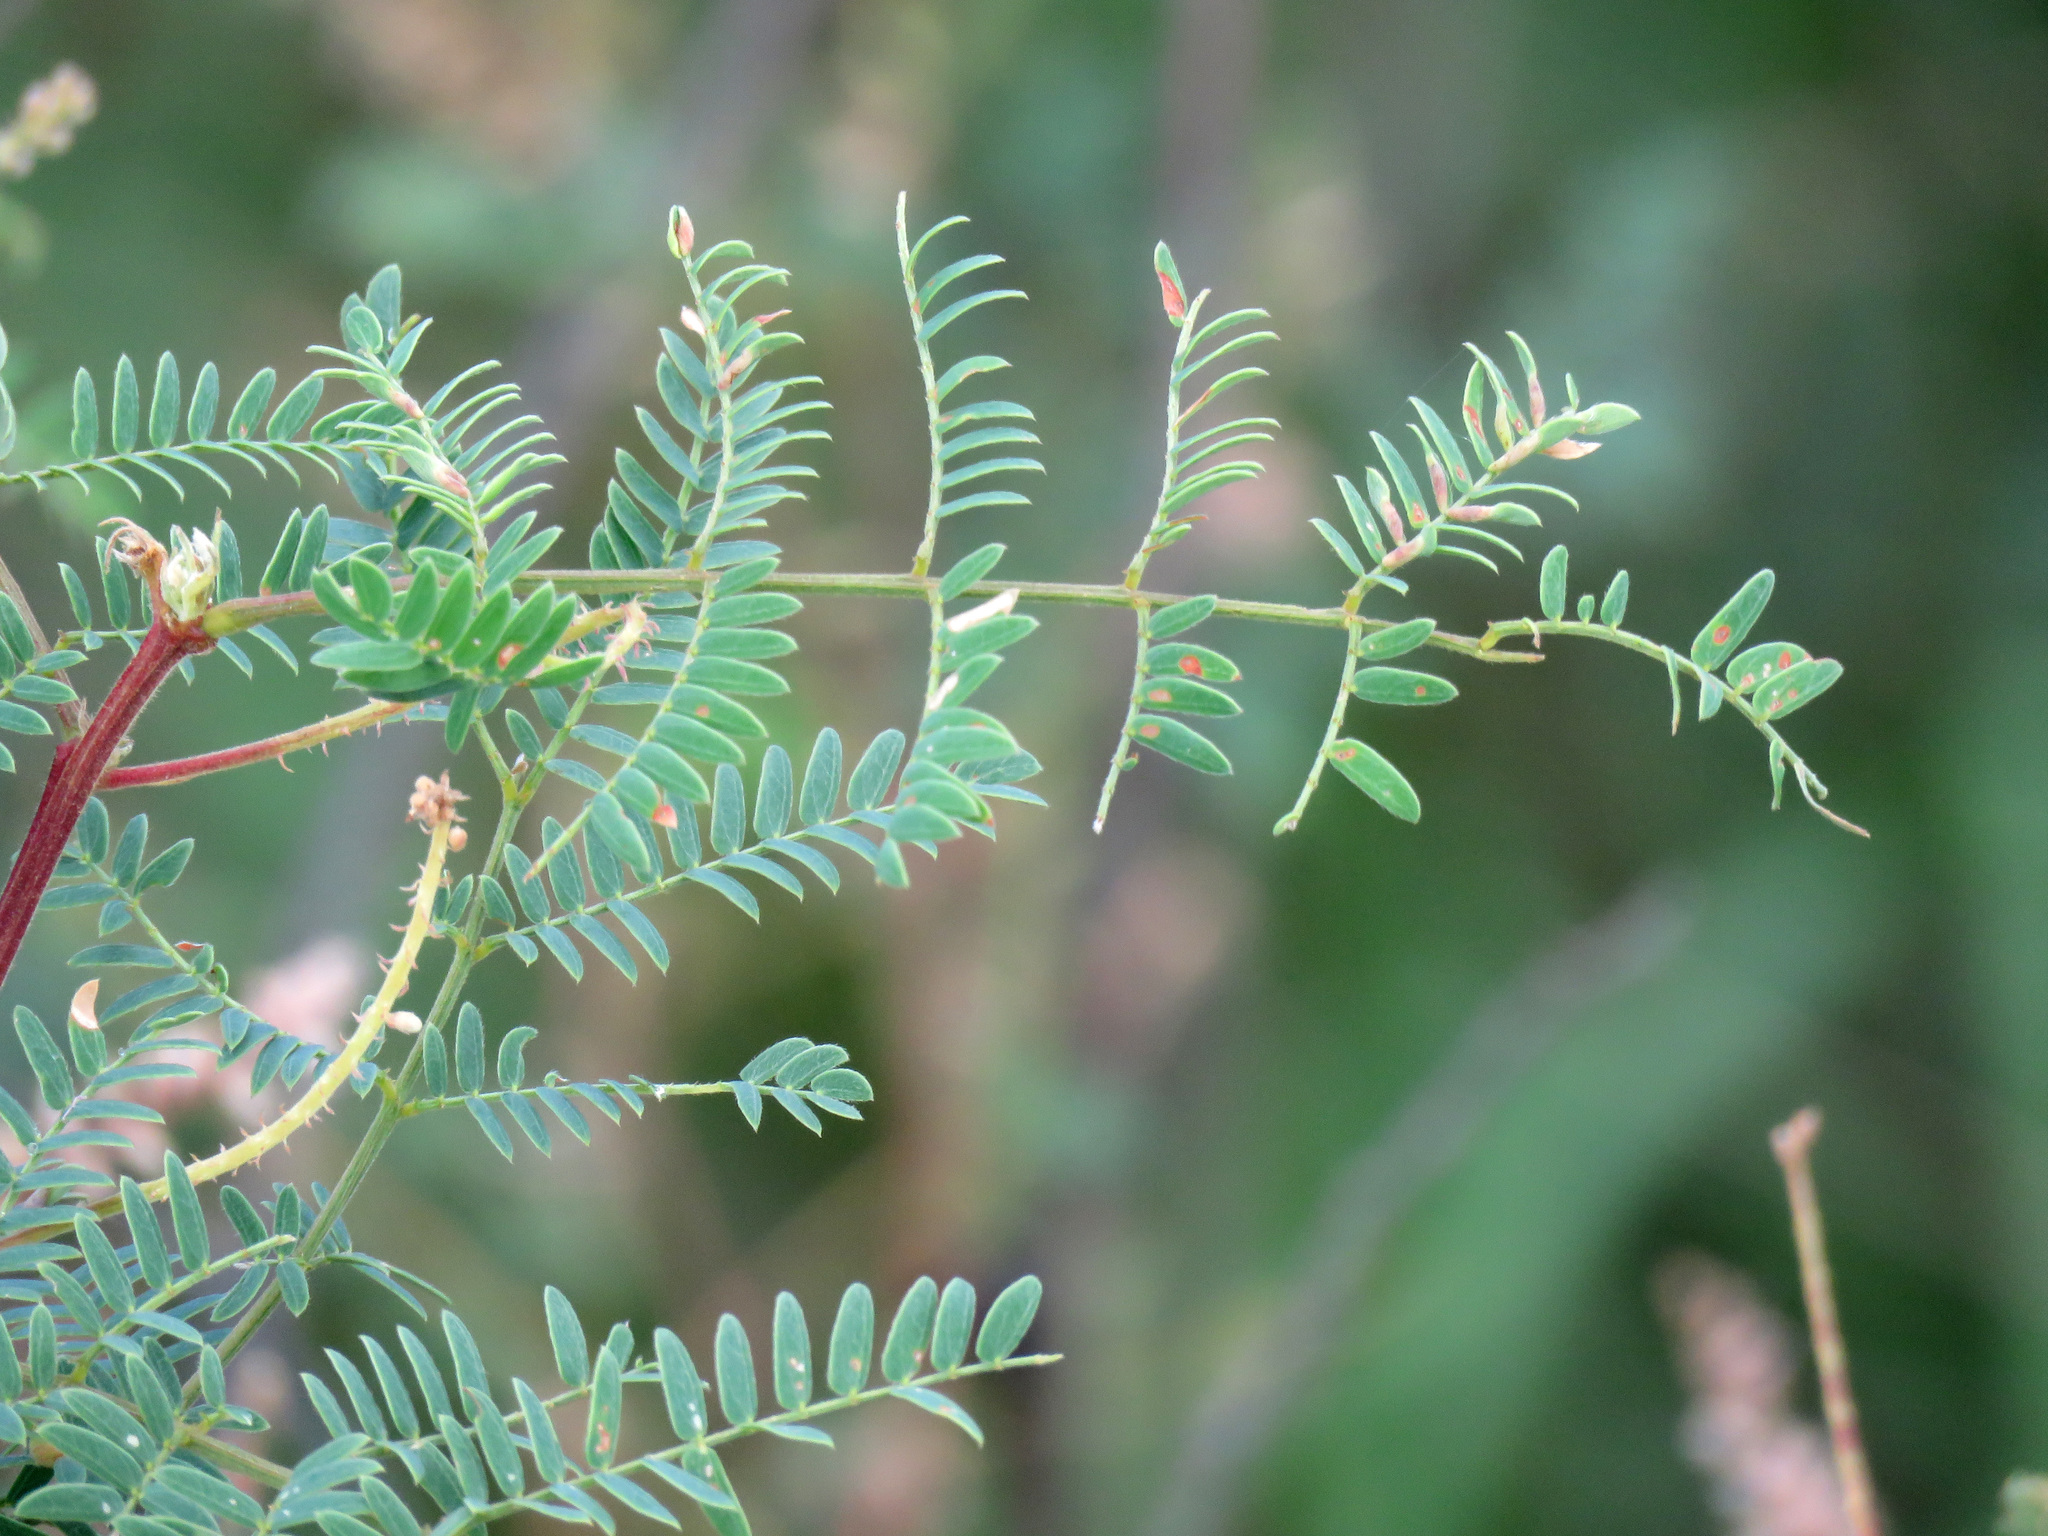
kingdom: Plantae
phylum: Tracheophyta
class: Magnoliopsida
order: Fabales
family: Fabaceae
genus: Mimosa
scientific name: Mimosa dysocarpa
